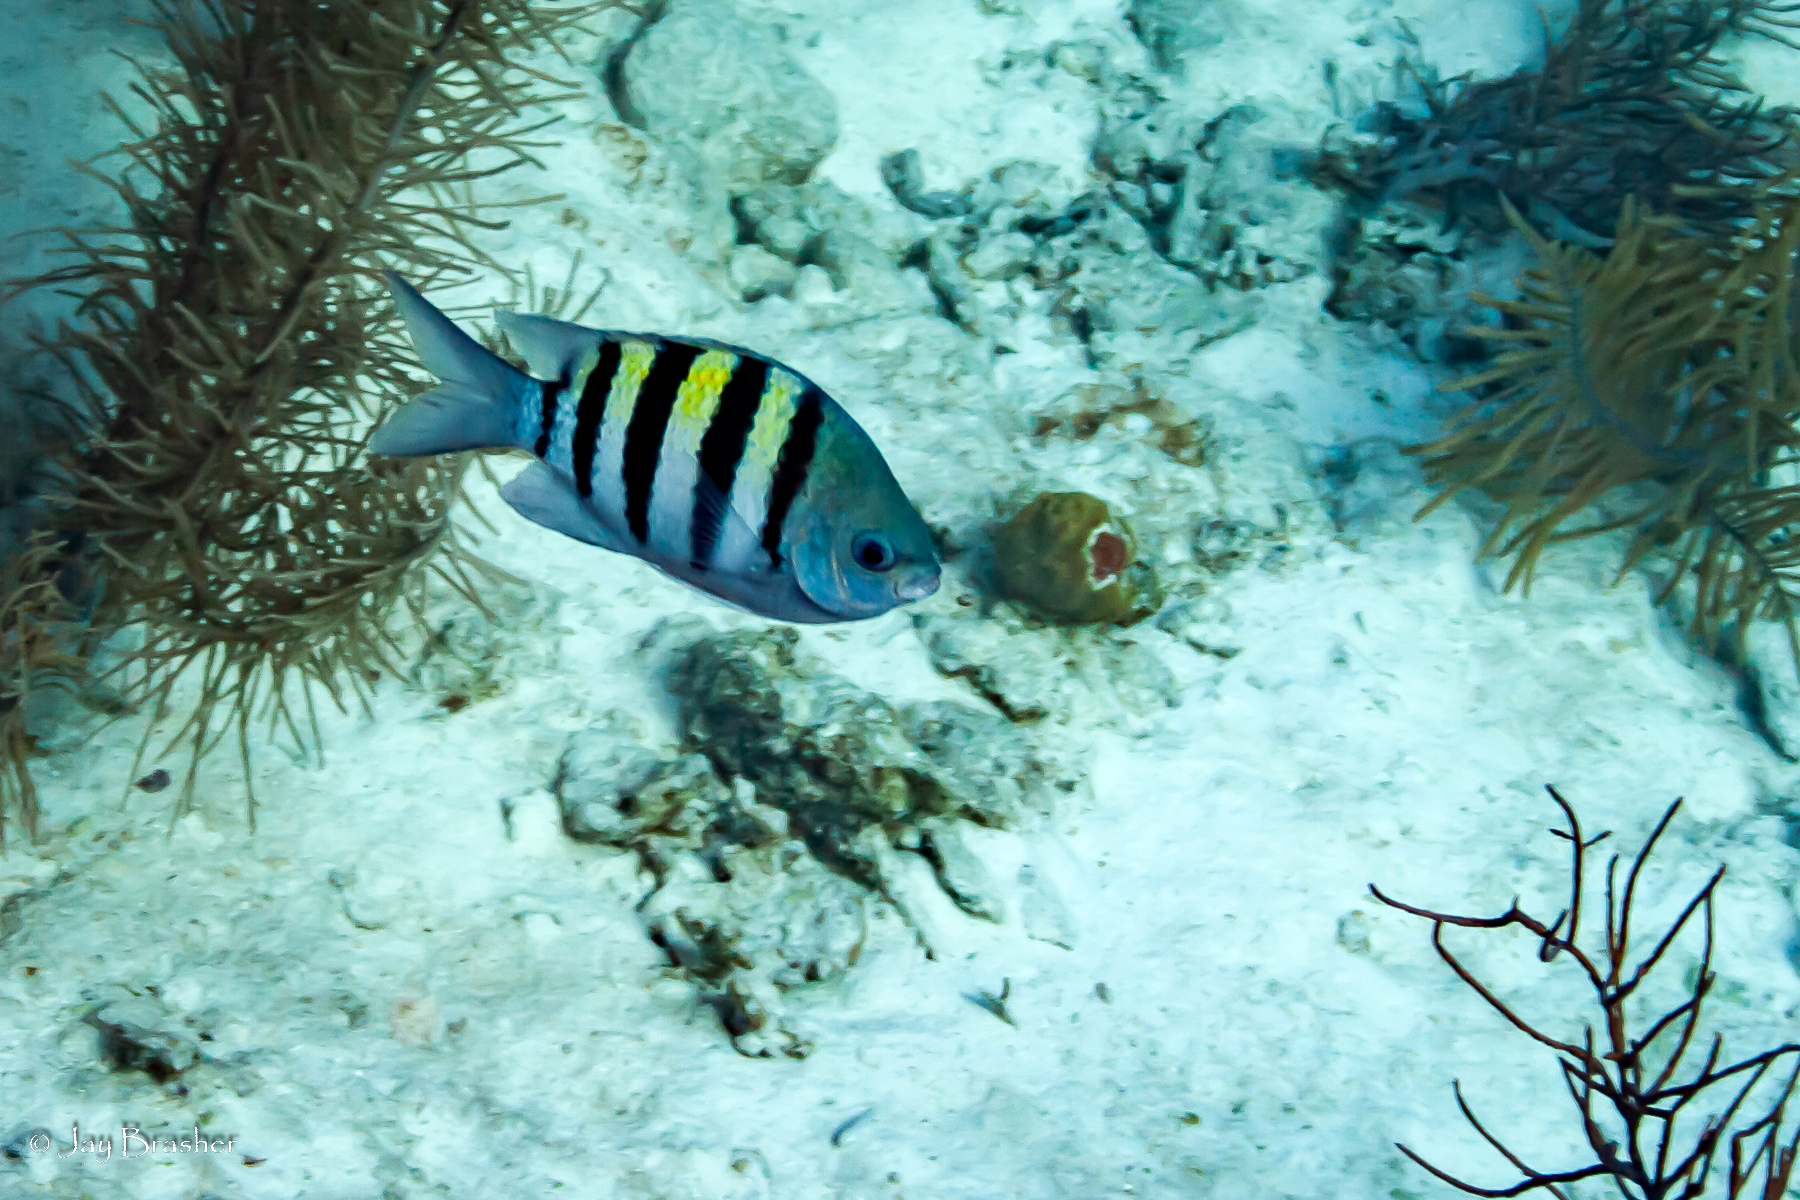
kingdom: Animalia
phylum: Chordata
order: Perciformes
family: Pomacentridae
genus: Abudefduf
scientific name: Abudefduf saxatilis
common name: Sergeant major
